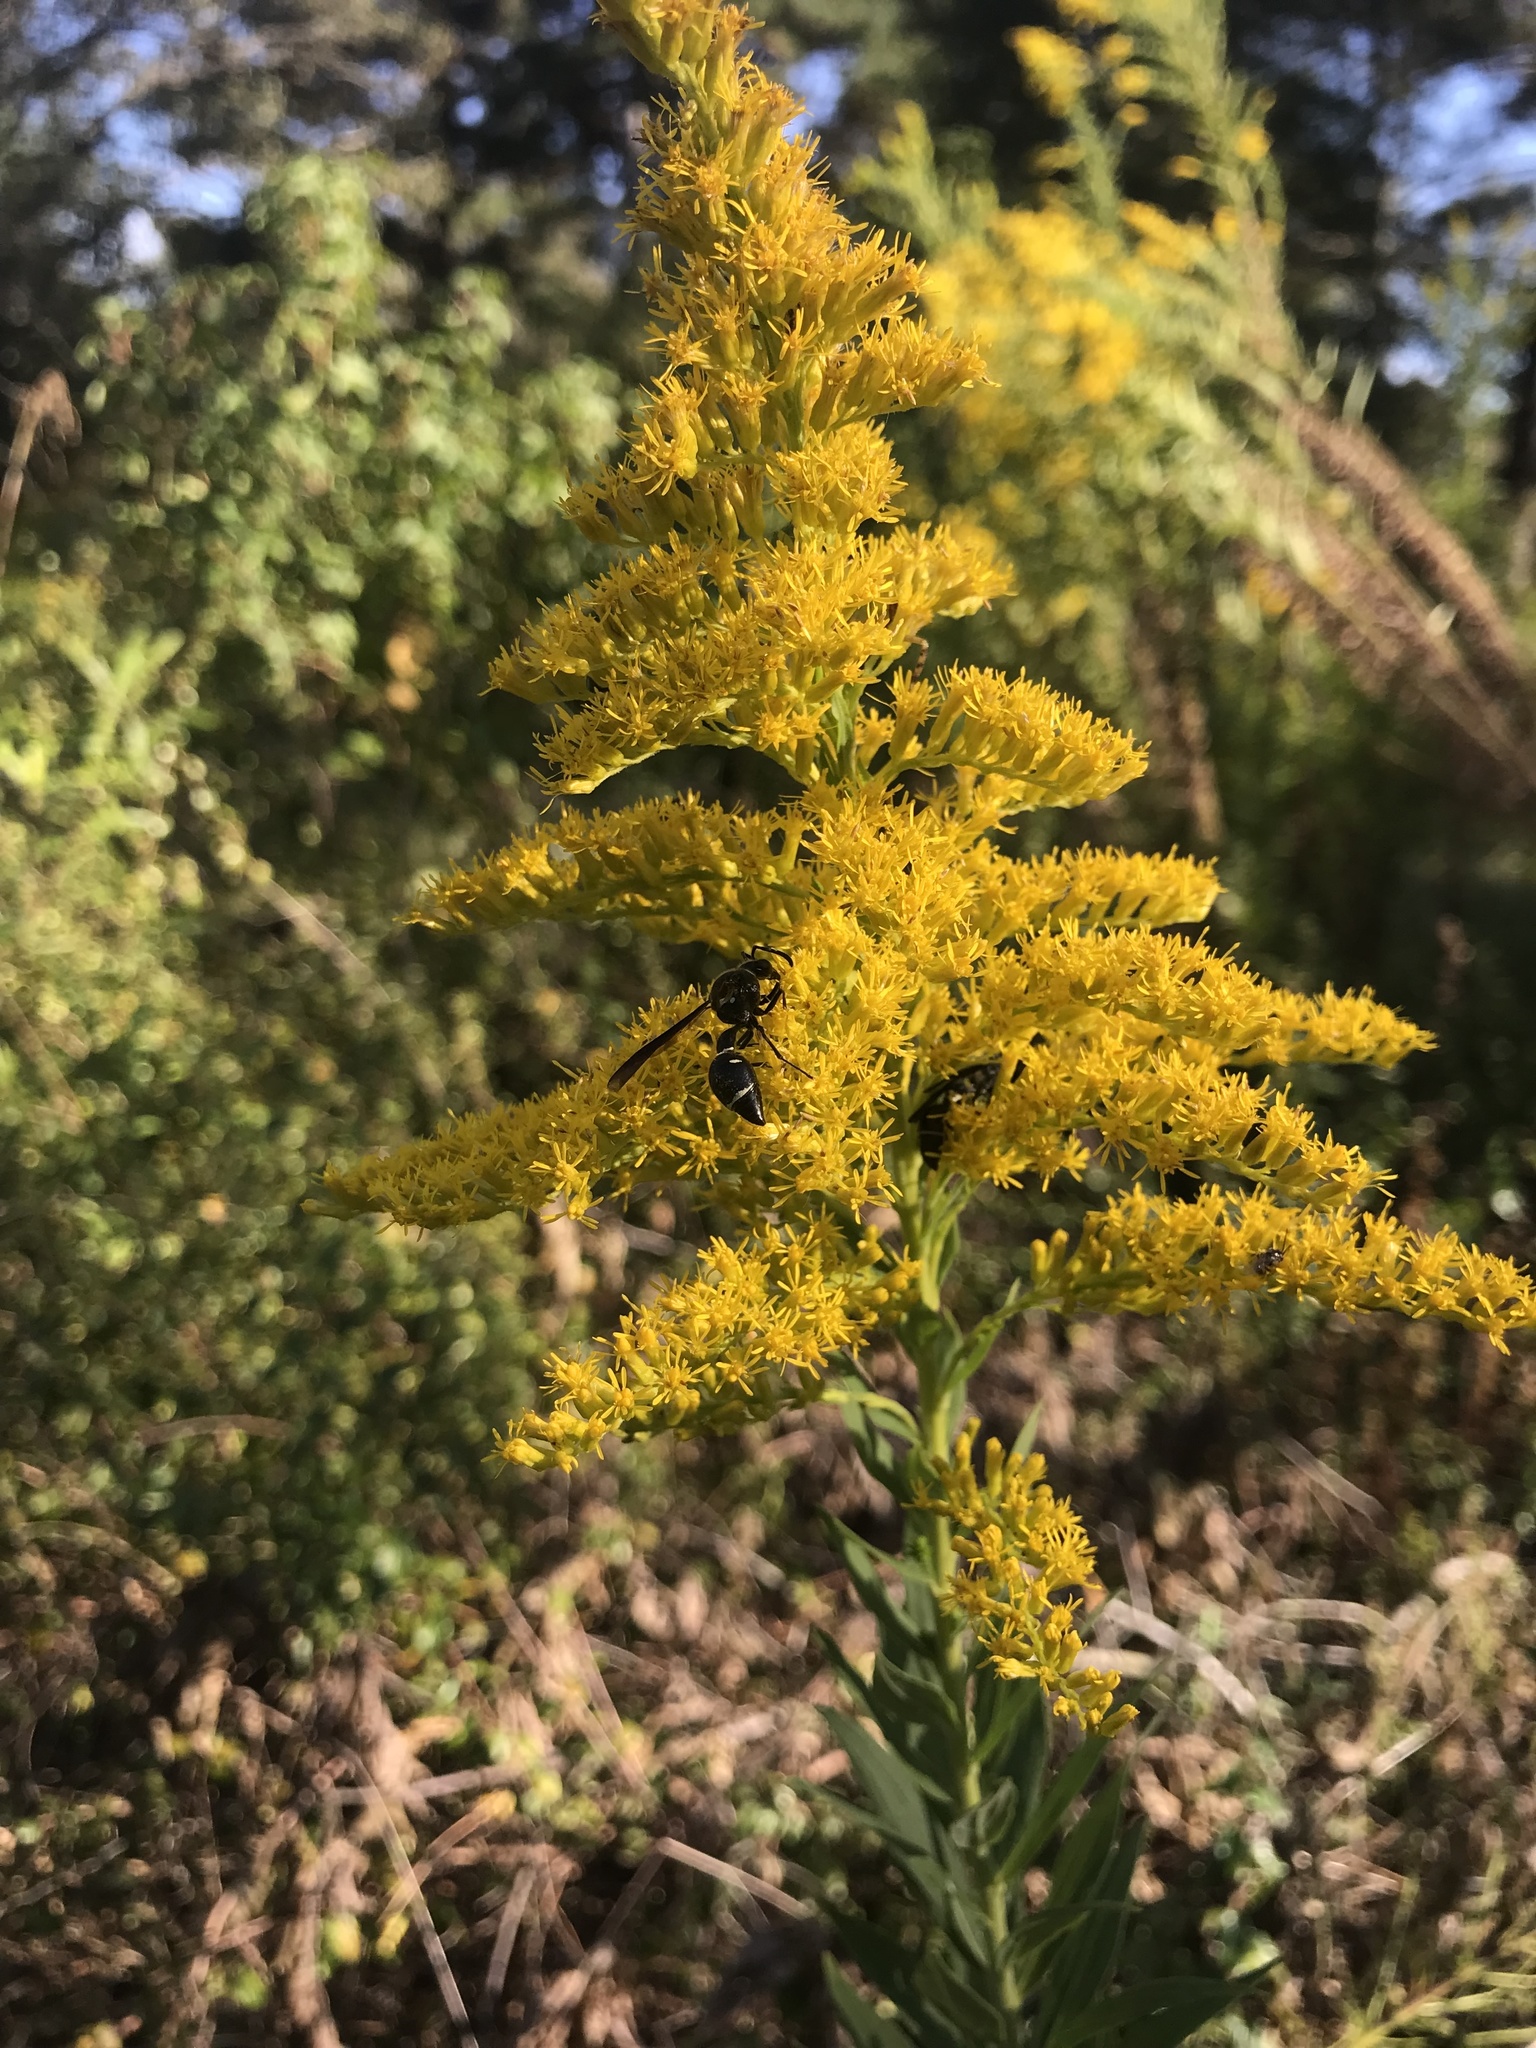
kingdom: Animalia
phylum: Arthropoda
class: Insecta
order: Hymenoptera
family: Vespidae
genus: Eumenes
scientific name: Eumenes fraternus
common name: Fraternal potter wasp
